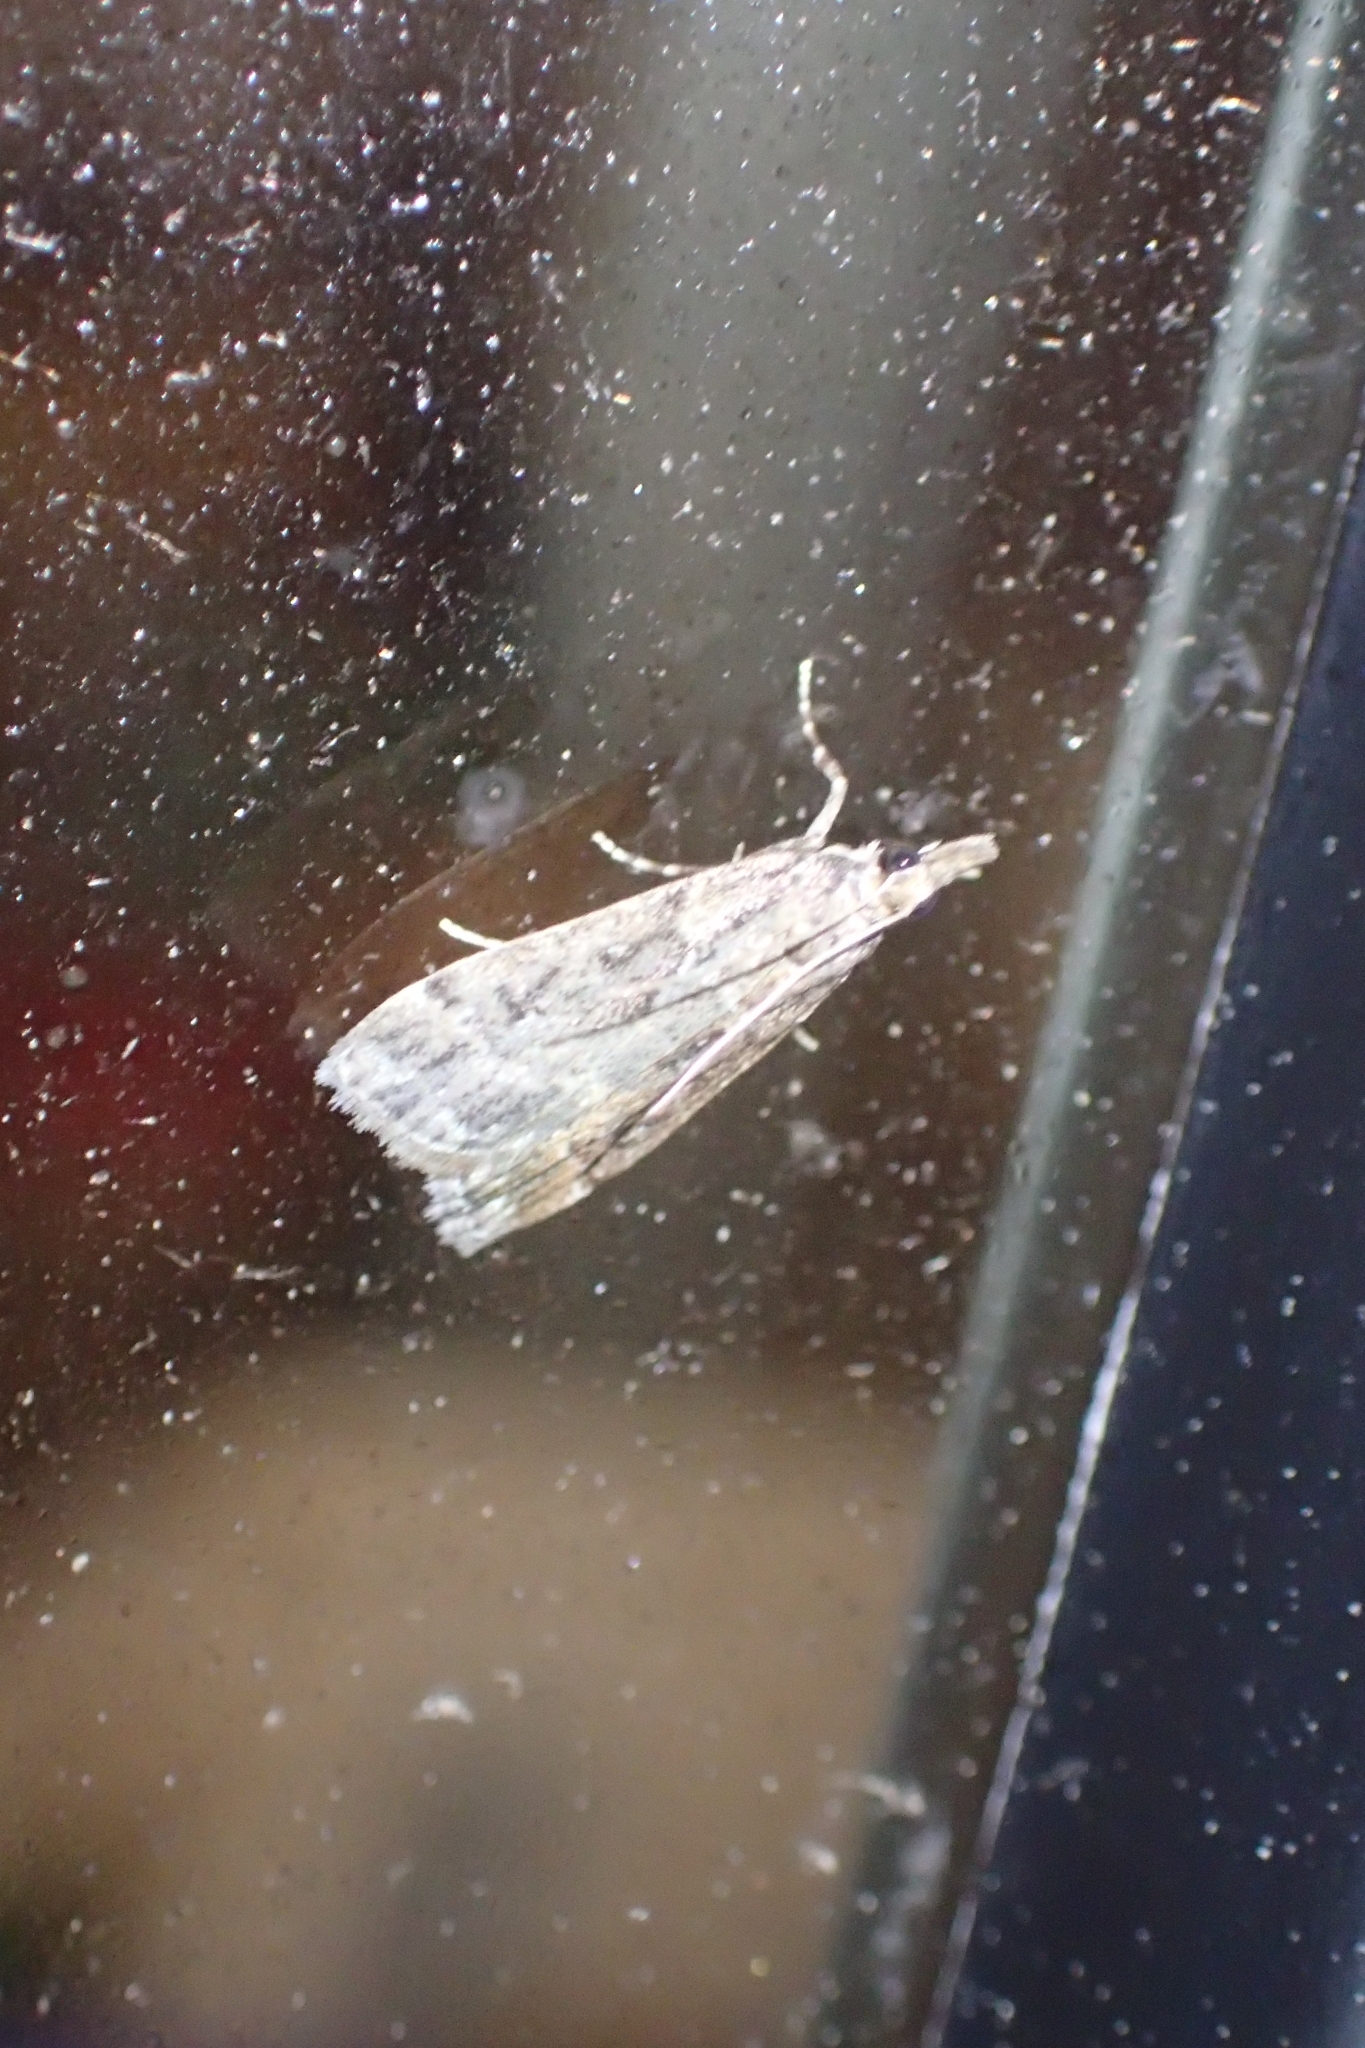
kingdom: Animalia
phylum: Arthropoda
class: Insecta
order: Lepidoptera
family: Crambidae
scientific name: Crambidae
